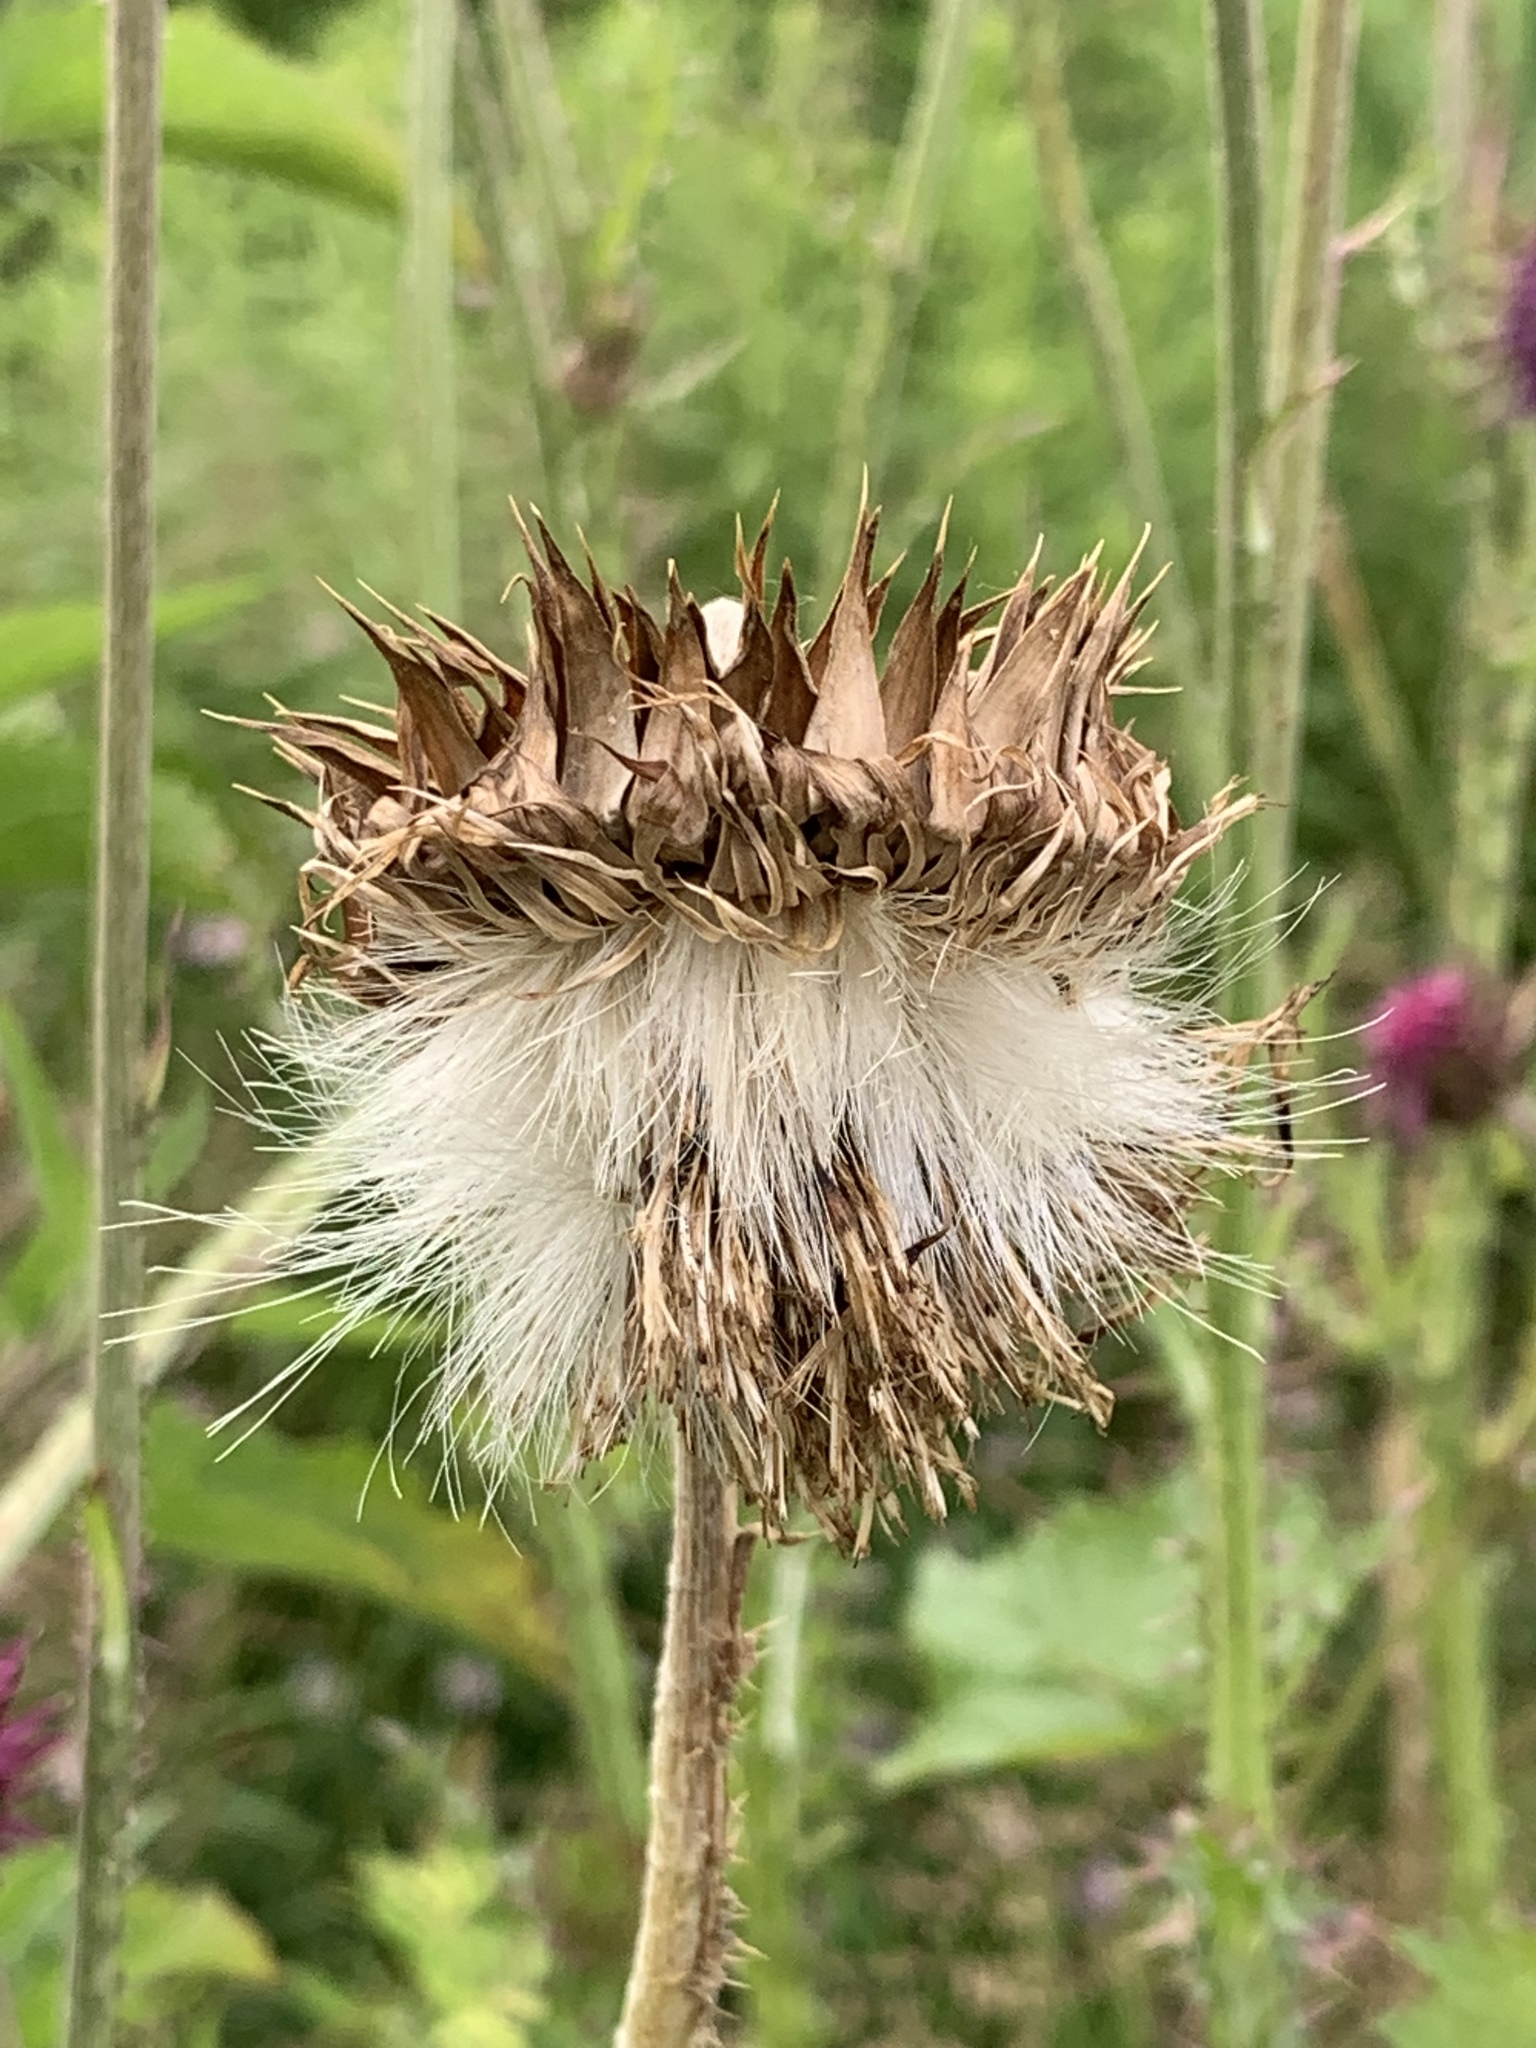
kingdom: Plantae
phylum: Tracheophyta
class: Magnoliopsida
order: Asterales
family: Asteraceae
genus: Carduus
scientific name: Carduus nutans
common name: Musk thistle
